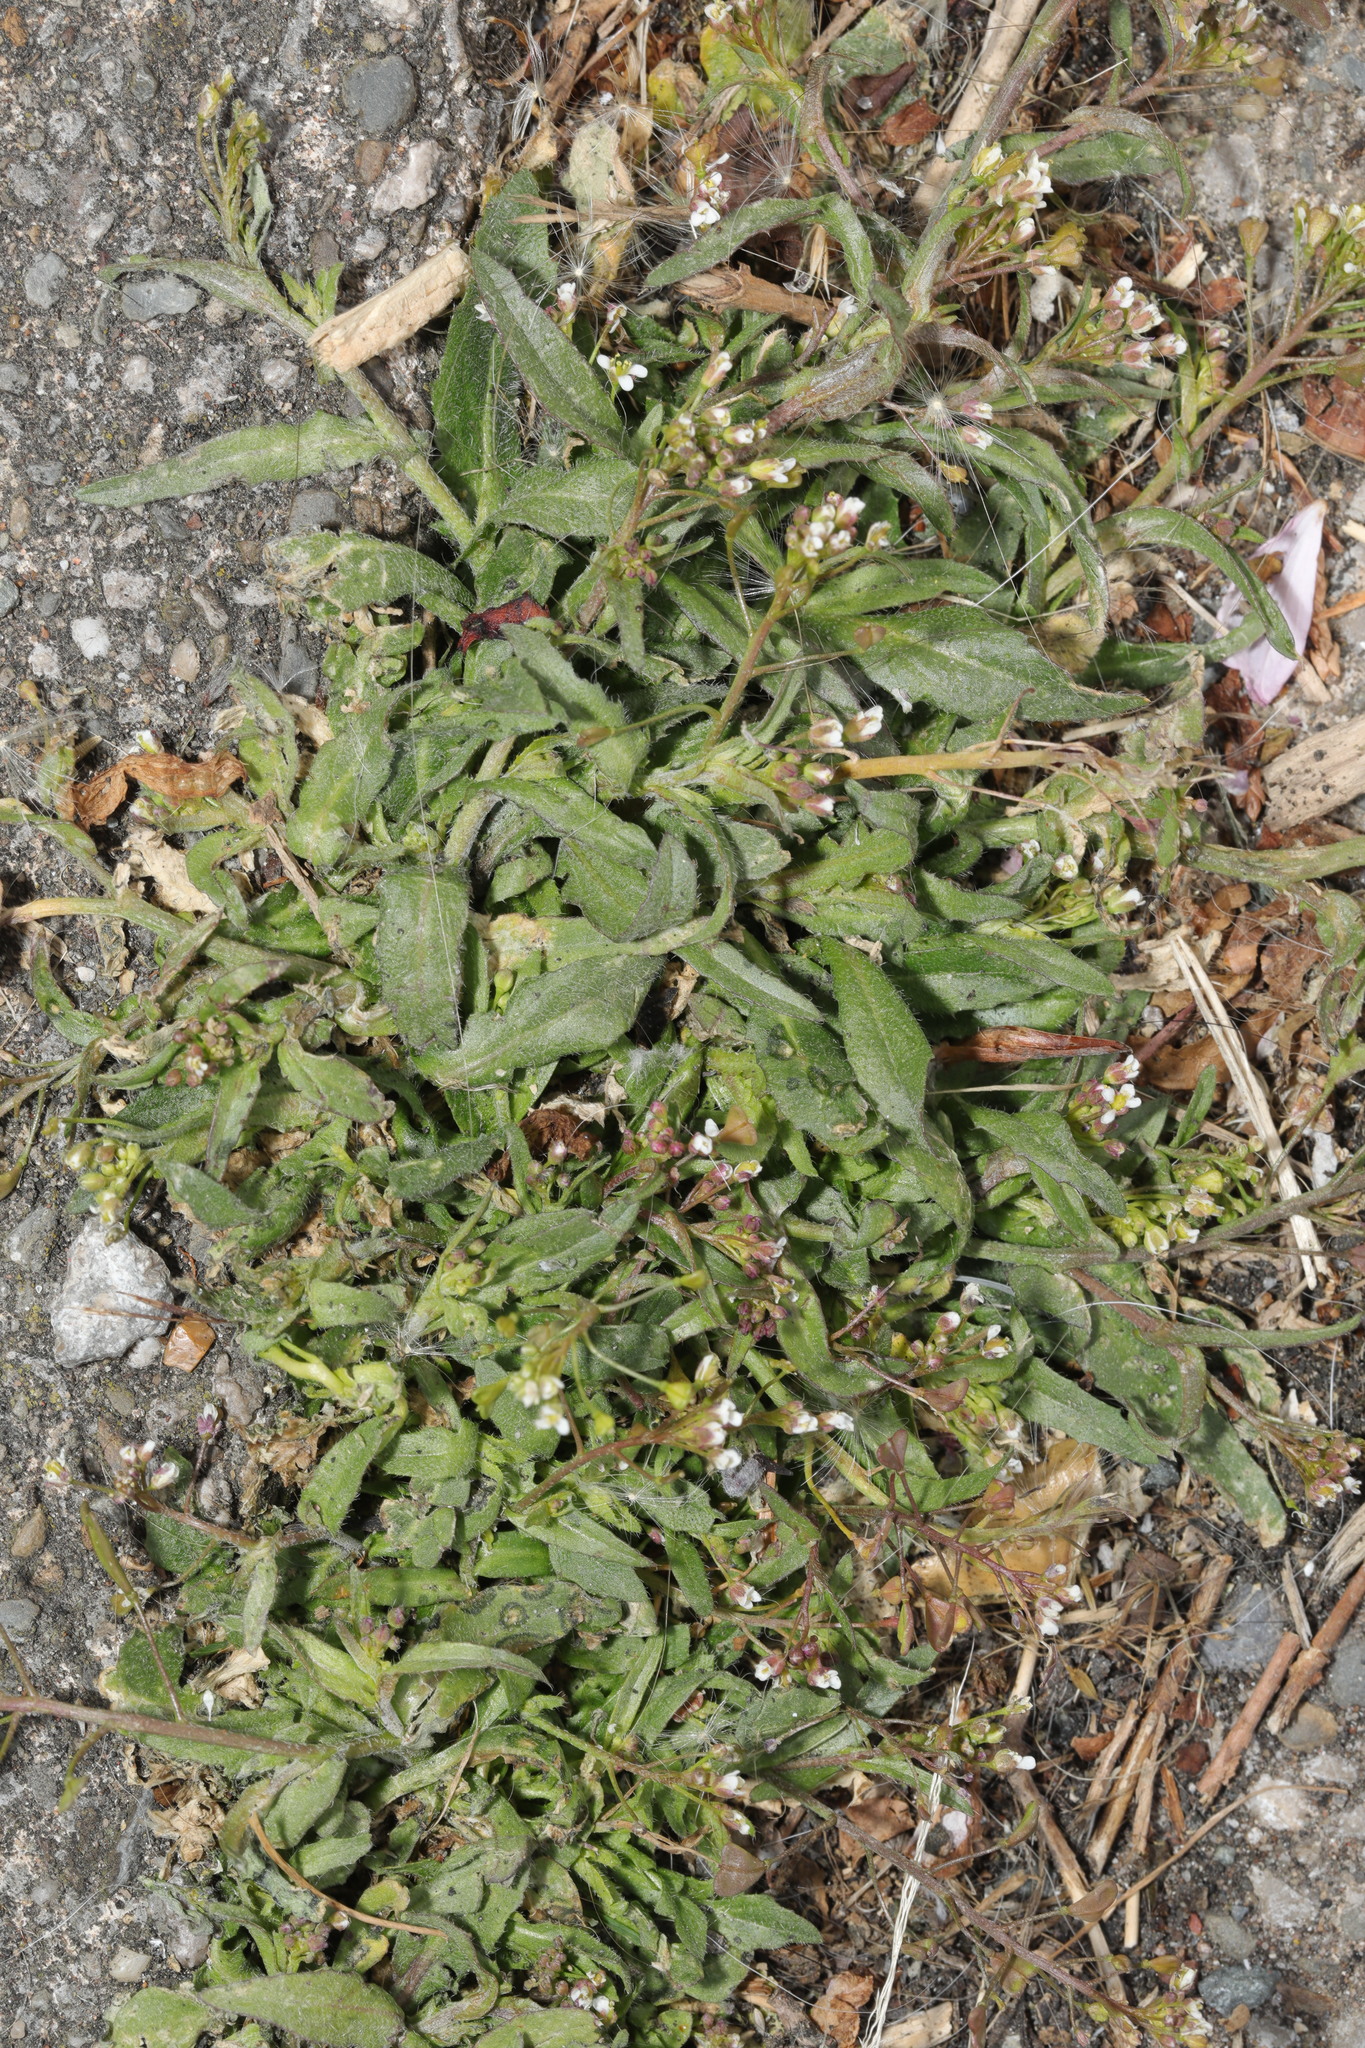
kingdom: Plantae
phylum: Tracheophyta
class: Magnoliopsida
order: Caryophyllales
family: Caryophyllaceae
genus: Cerastium
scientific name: Cerastium fontanum
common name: Common mouse-ear
